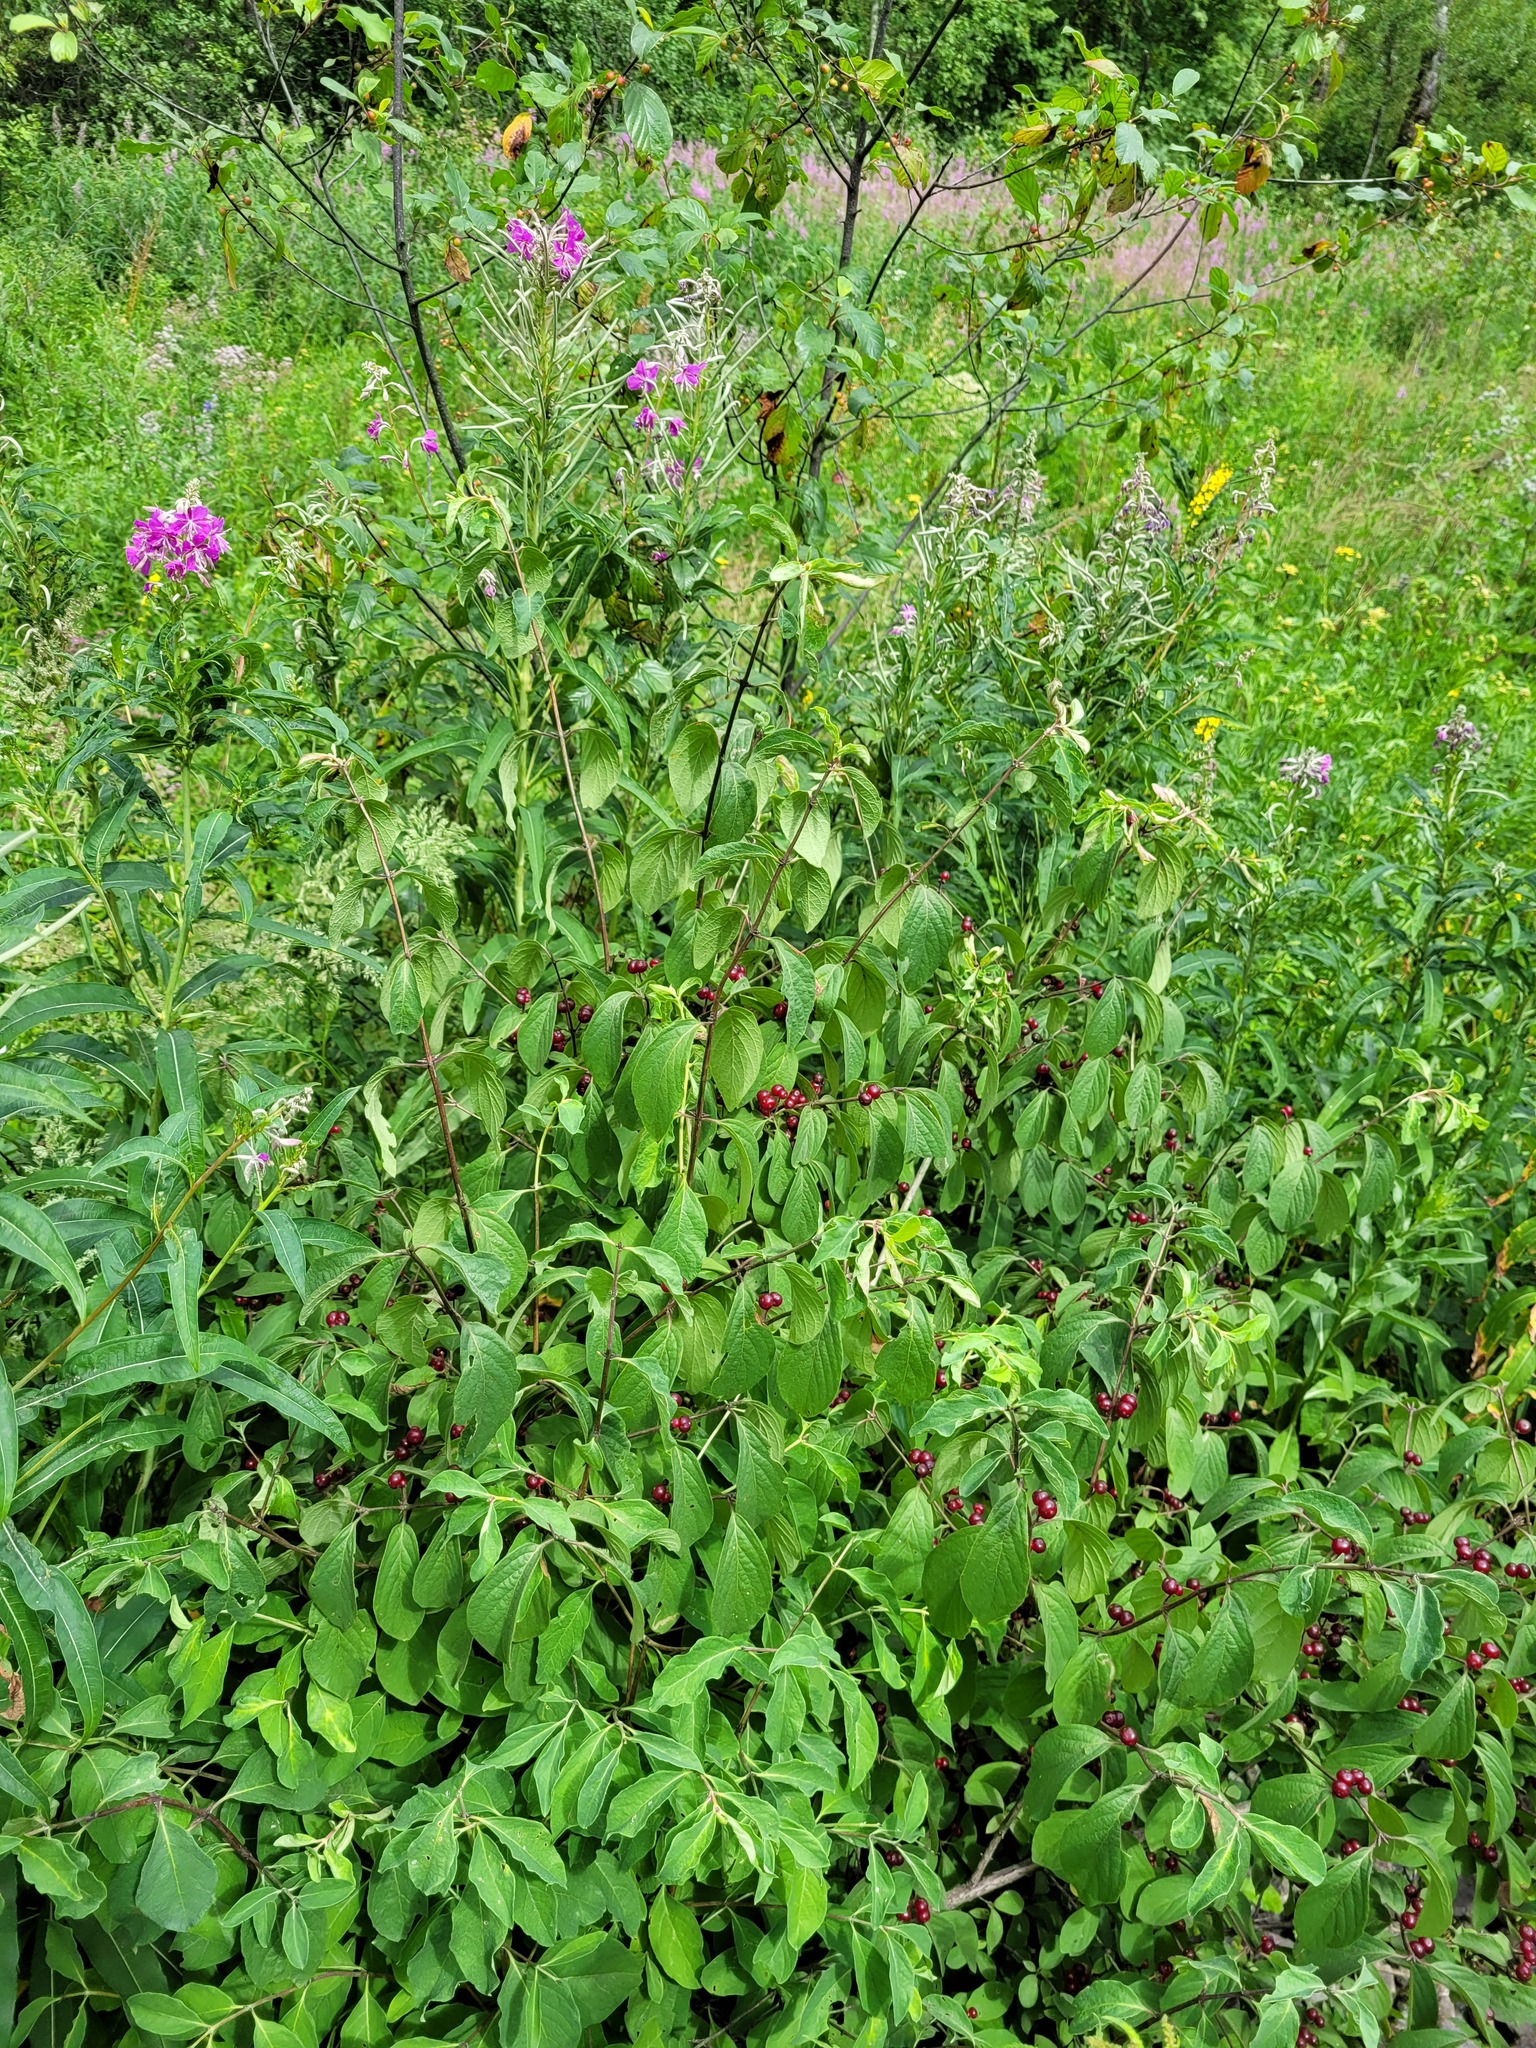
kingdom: Plantae
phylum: Tracheophyta
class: Magnoliopsida
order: Dipsacales
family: Caprifoliaceae
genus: Lonicera
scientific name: Lonicera xylosteum
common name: Fly honeysuckle
